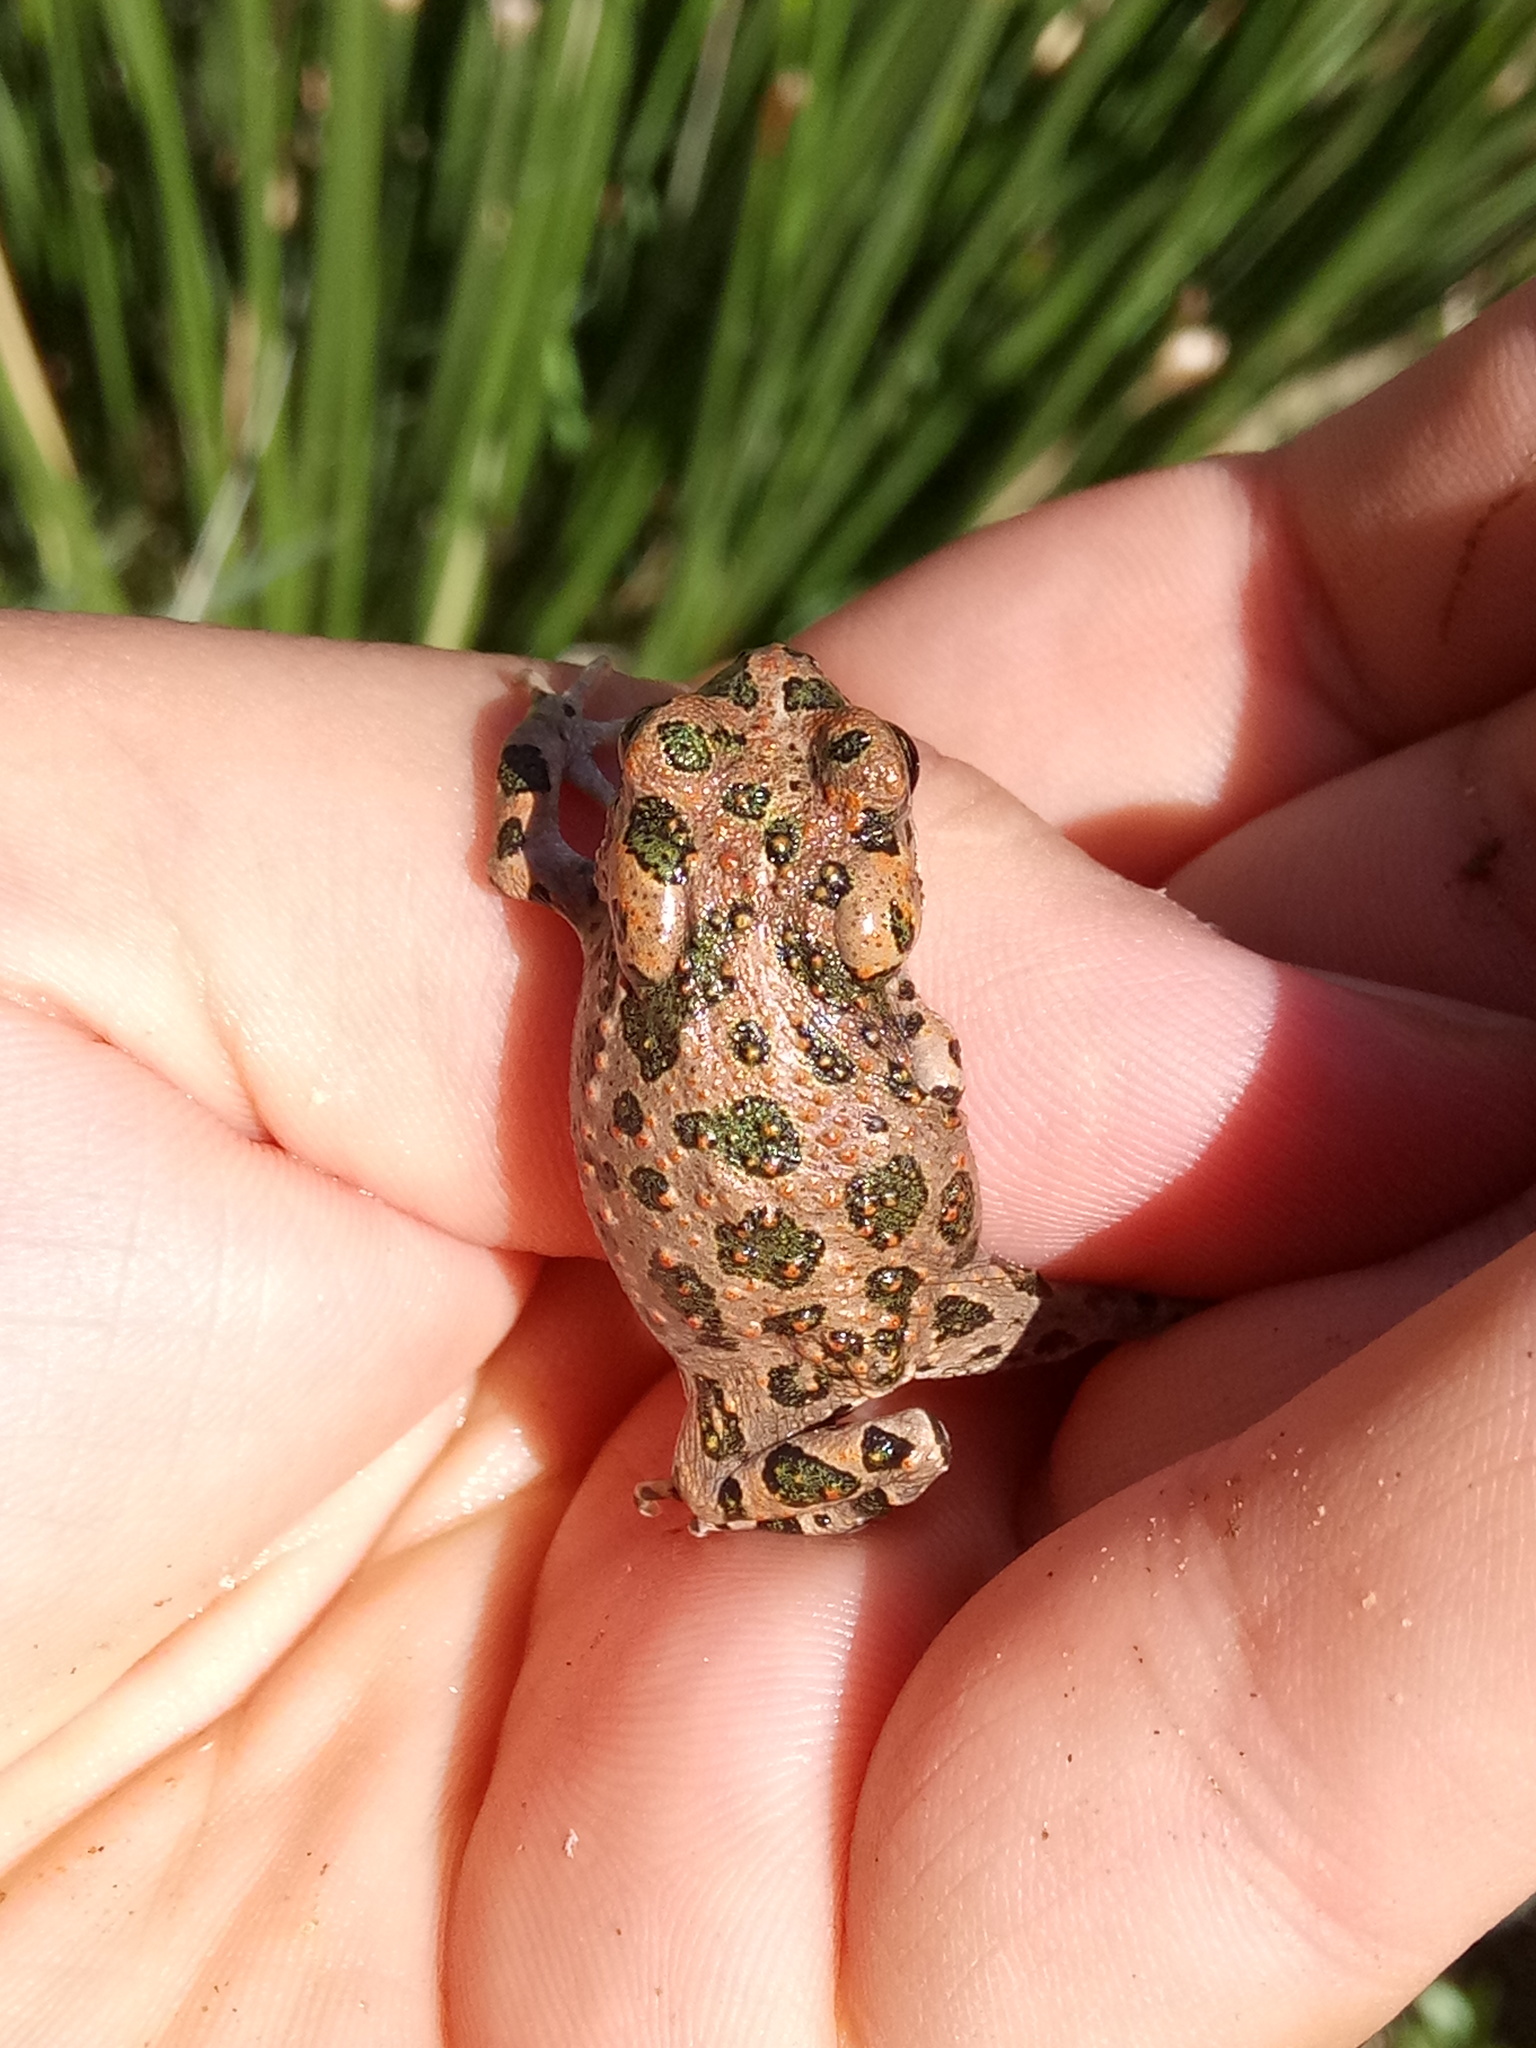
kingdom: Animalia
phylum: Chordata
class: Amphibia
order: Anura
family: Bufonidae
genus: Bufotes
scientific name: Bufotes boulengeri
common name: African green toad
